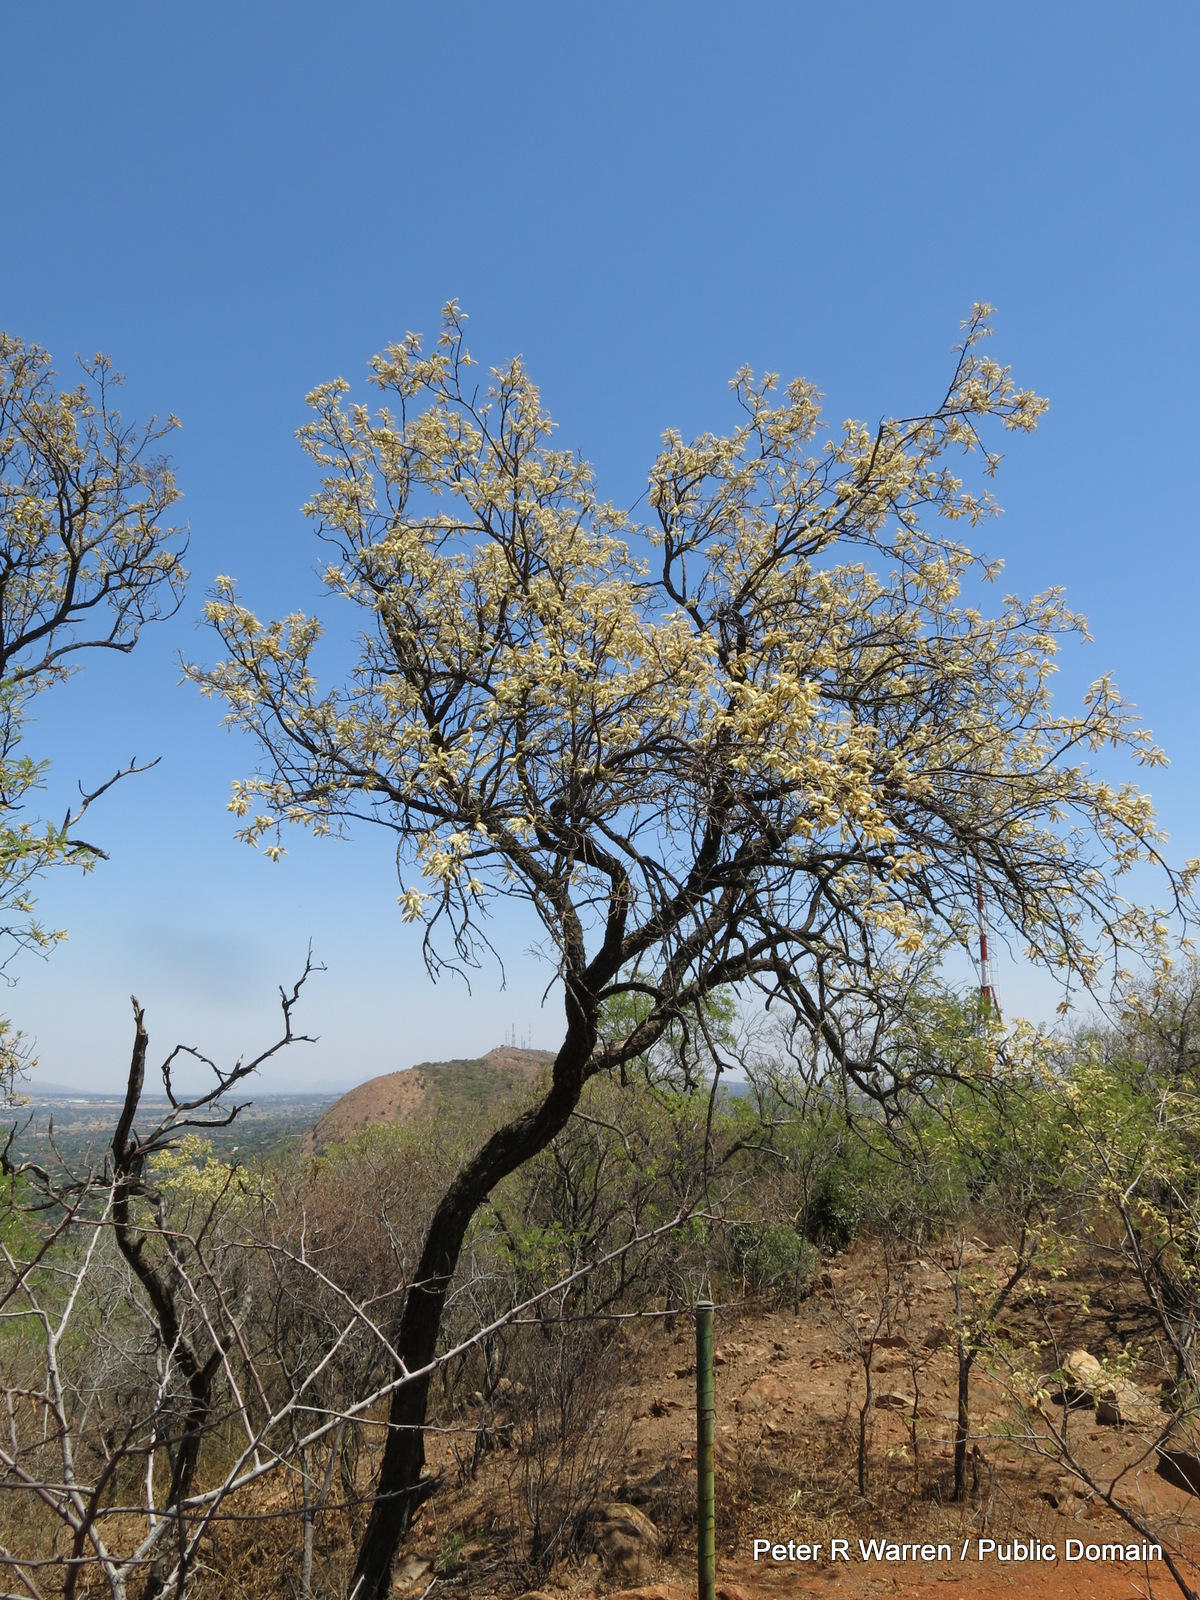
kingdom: Plantae
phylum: Tracheophyta
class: Magnoliopsida
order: Fabales
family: Fabaceae
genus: Senegalia
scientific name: Senegalia caffra
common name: Cat thorn
